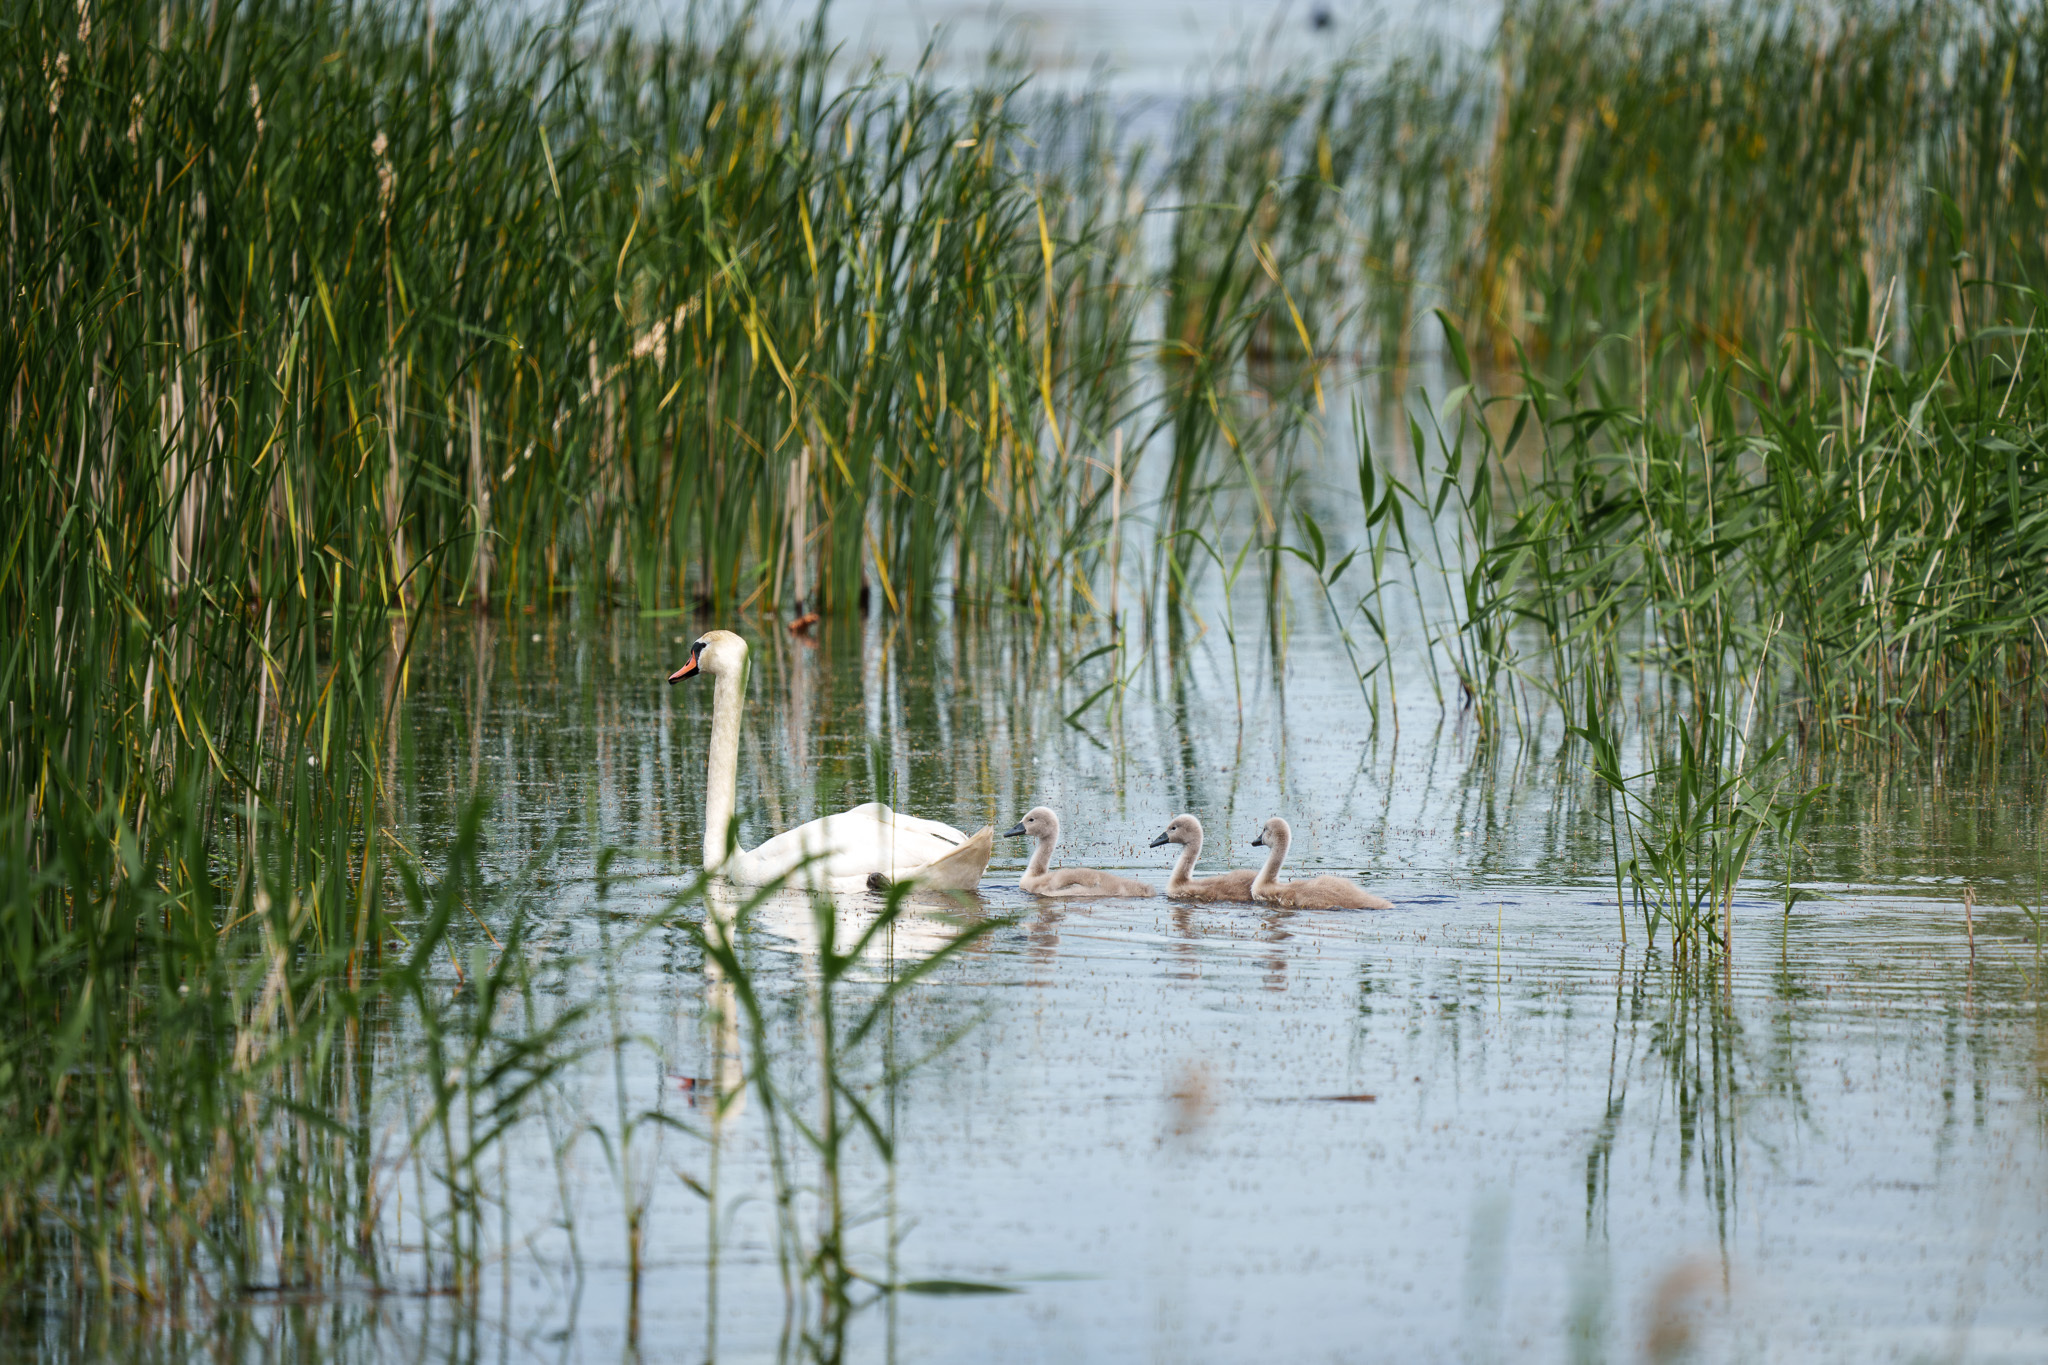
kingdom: Animalia
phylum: Chordata
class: Aves
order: Anseriformes
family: Anatidae
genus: Cygnus
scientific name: Cygnus olor
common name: Mute swan
